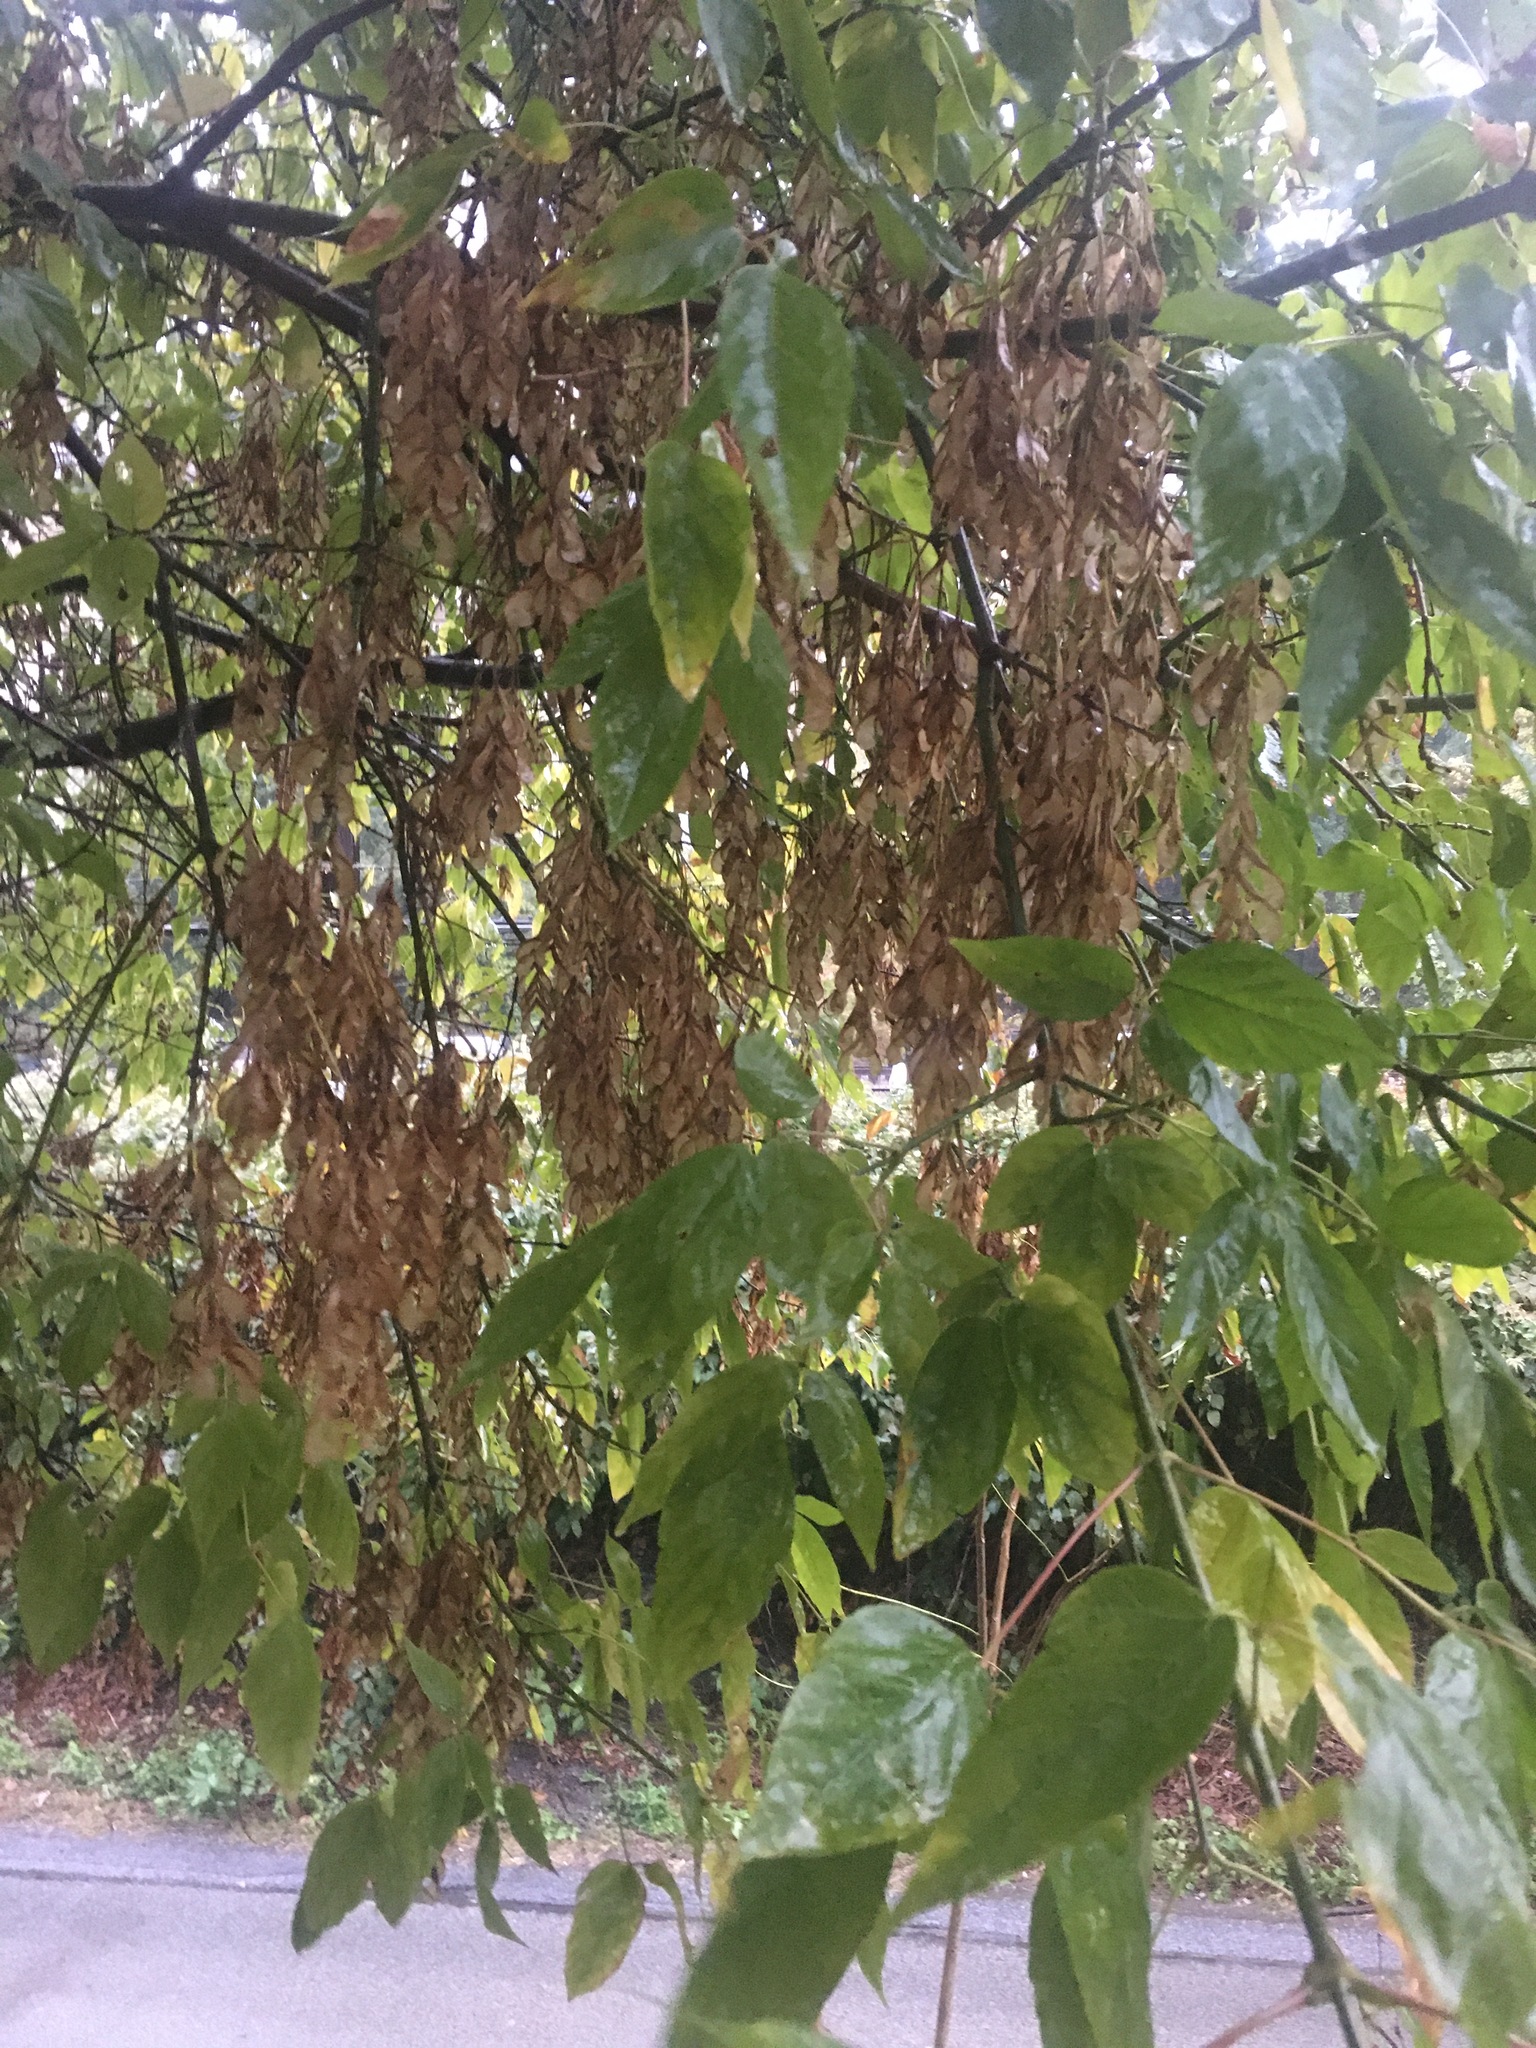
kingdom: Plantae
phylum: Tracheophyta
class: Magnoliopsida
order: Sapindales
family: Sapindaceae
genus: Acer
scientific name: Acer negundo
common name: Ashleaf maple
